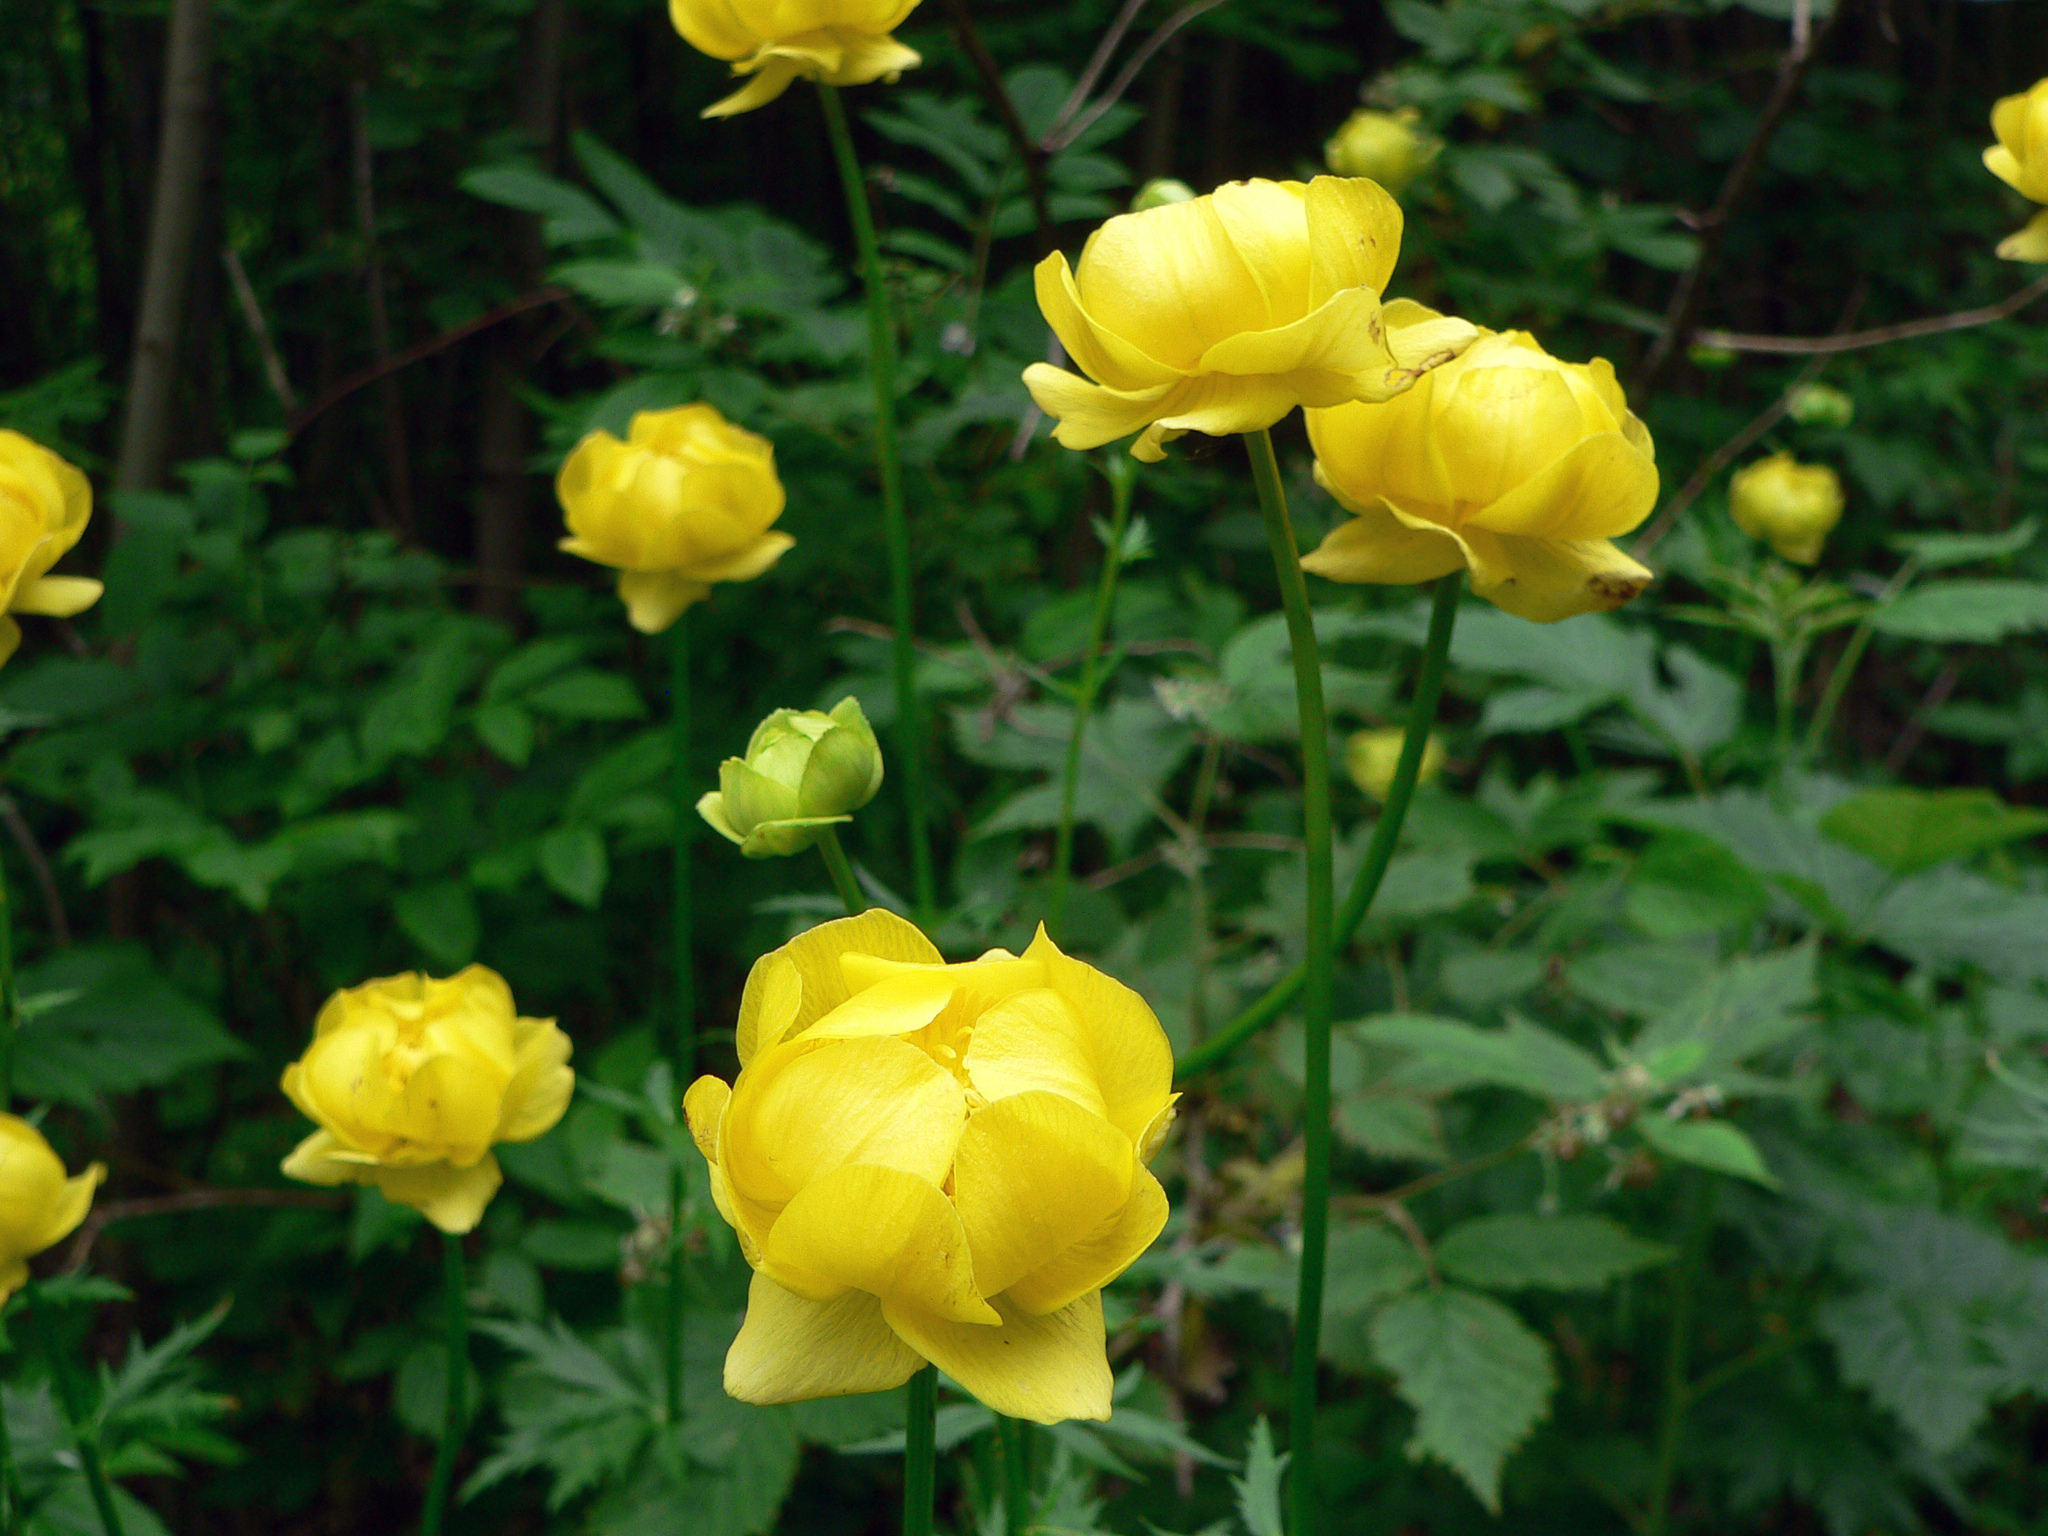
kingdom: Plantae
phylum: Tracheophyta
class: Magnoliopsida
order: Ranunculales
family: Ranunculaceae
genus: Trollius
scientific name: Trollius europaeus
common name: European globeflower
